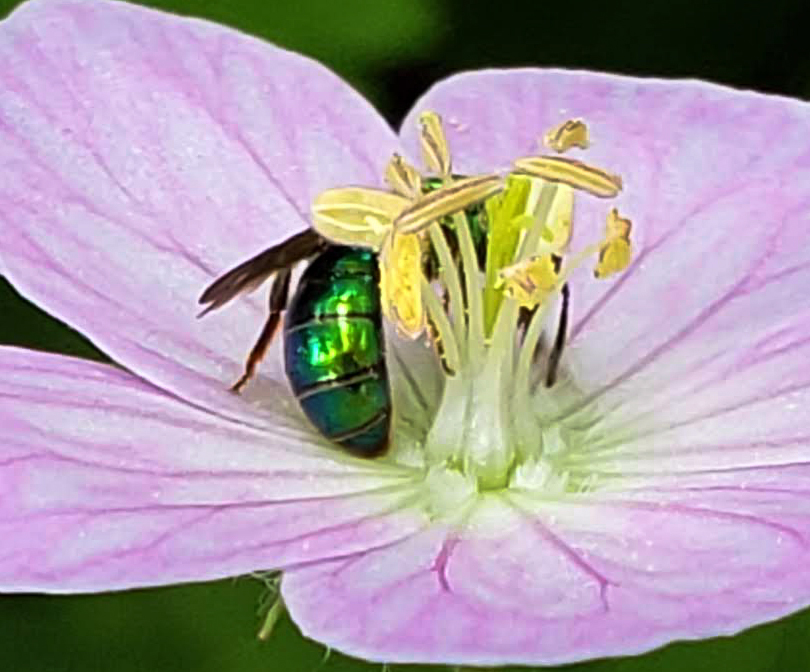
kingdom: Animalia
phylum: Arthropoda
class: Insecta
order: Hymenoptera
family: Halictidae
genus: Augochlora
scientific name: Augochlora pura
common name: Pure green sweat bee
